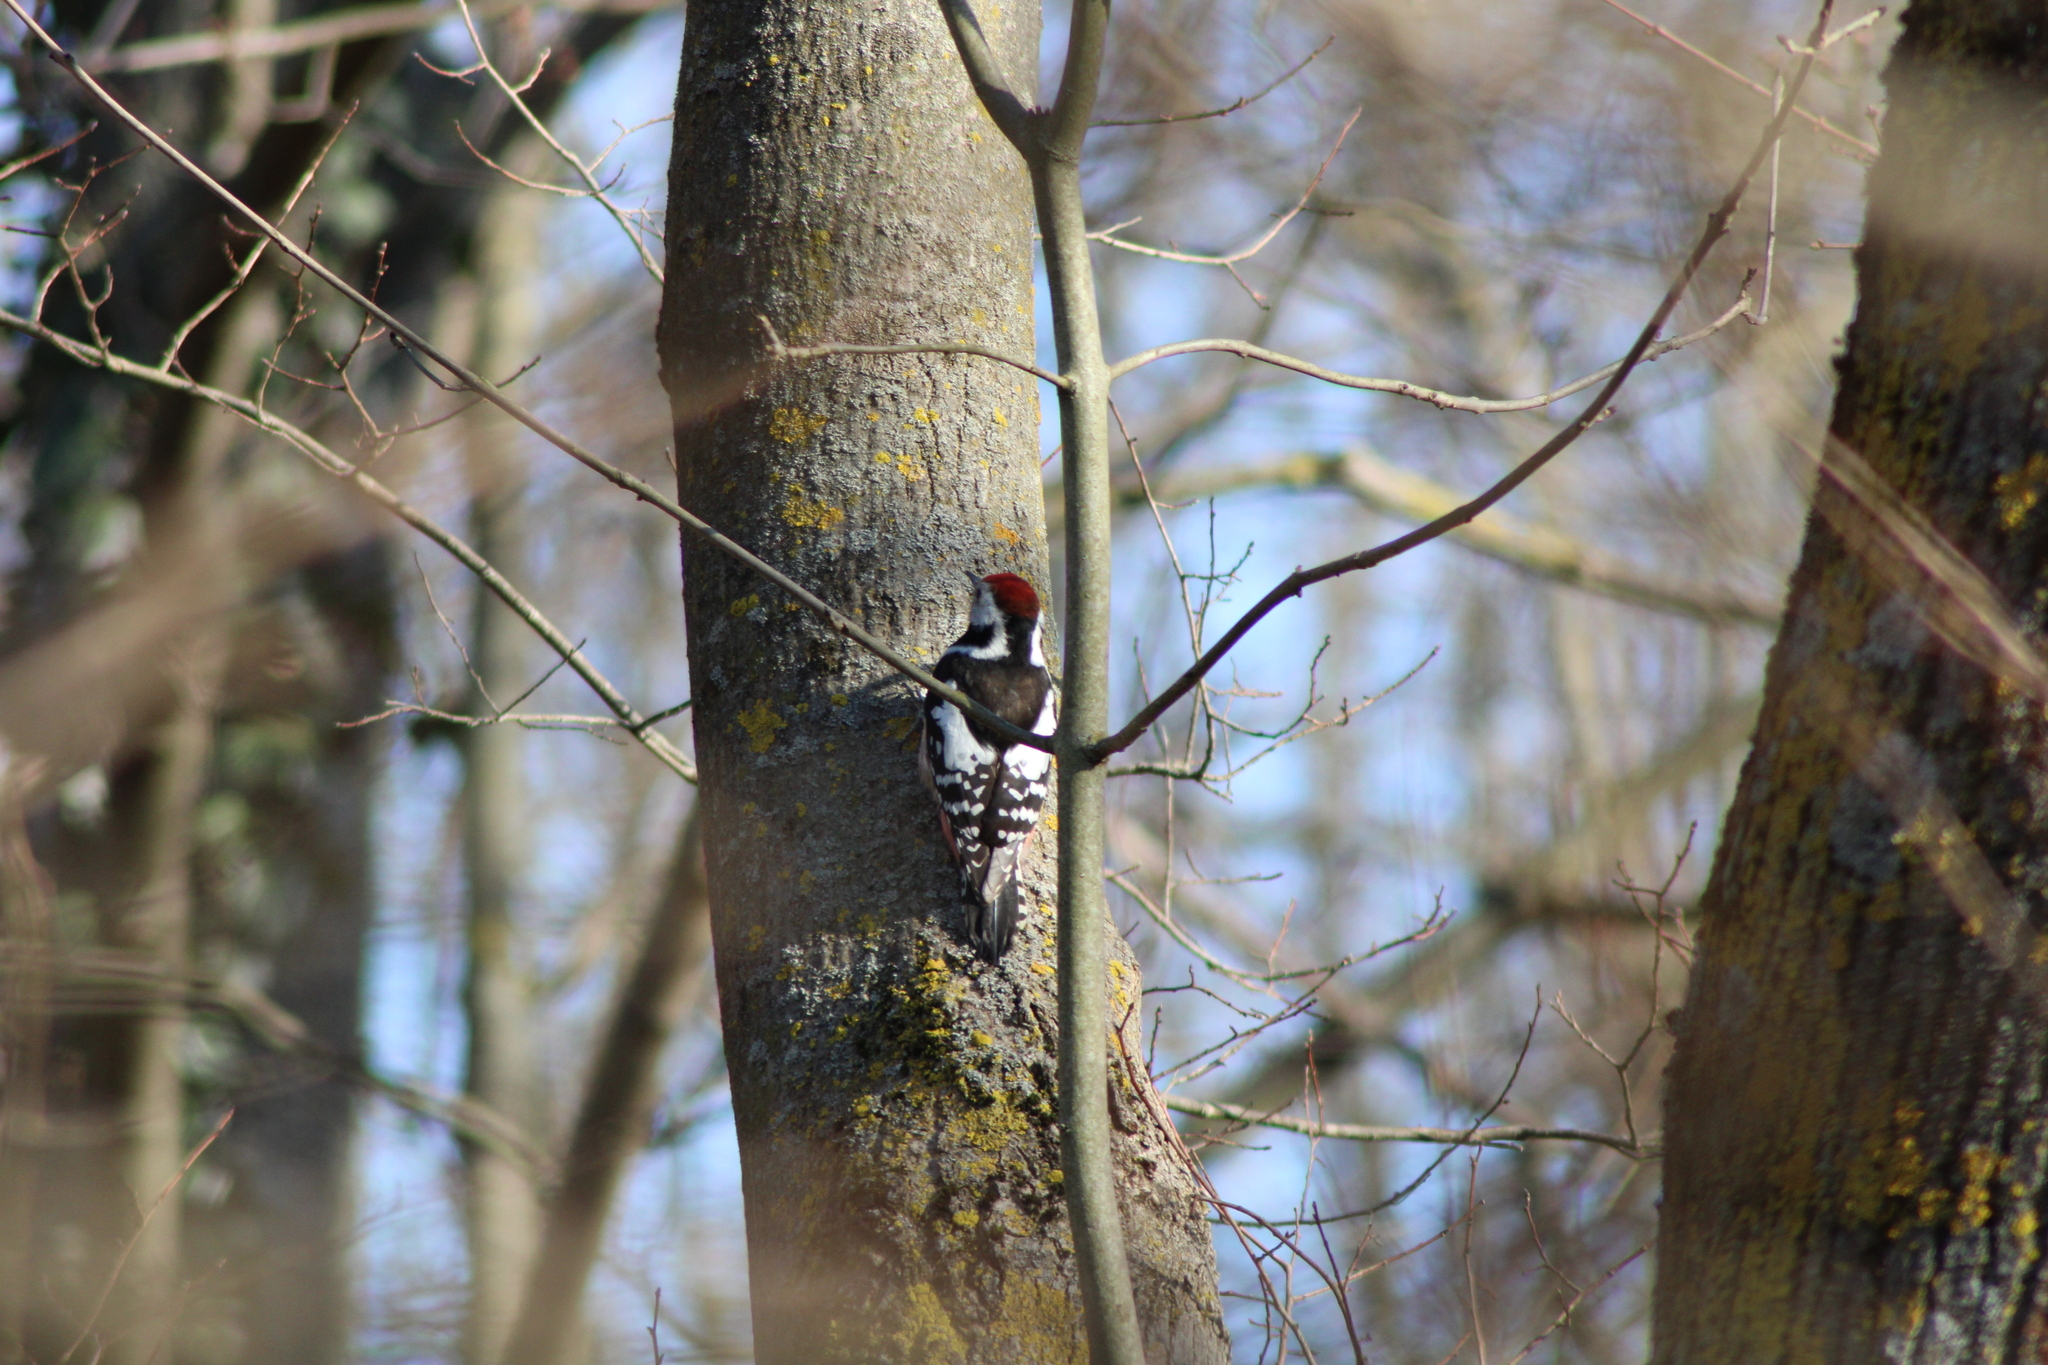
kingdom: Animalia
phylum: Chordata
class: Aves
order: Piciformes
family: Picidae
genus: Dendrocoptes
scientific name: Dendrocoptes medius
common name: Middle spotted woodpecker
